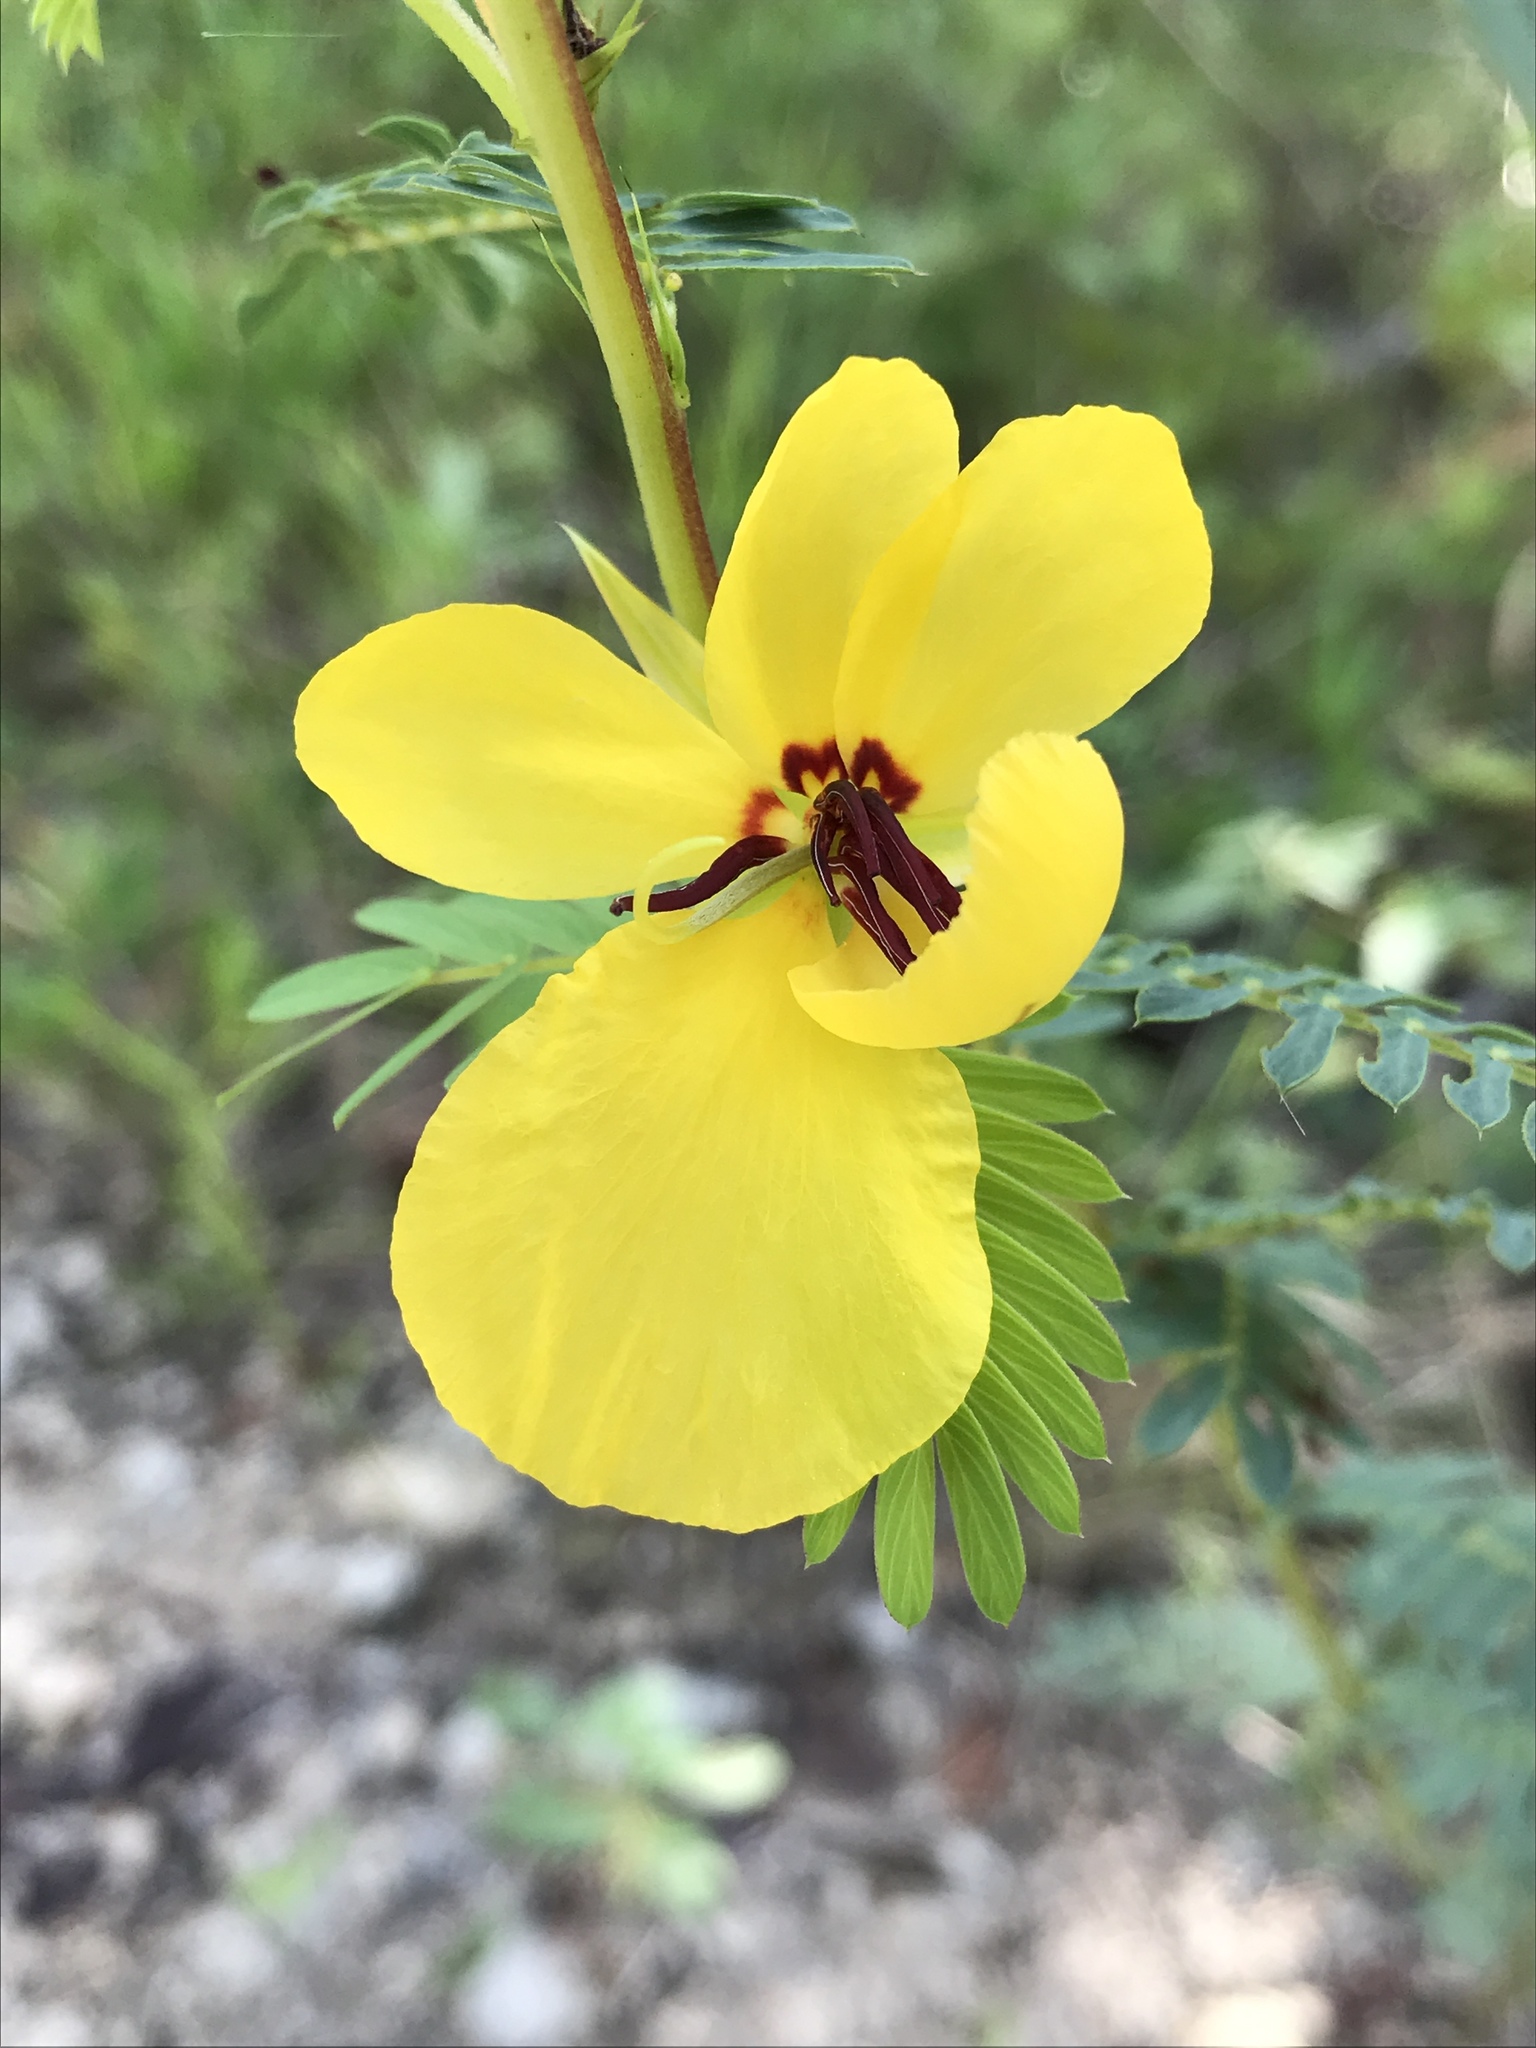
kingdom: Plantae
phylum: Tracheophyta
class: Magnoliopsida
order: Fabales
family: Fabaceae
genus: Chamaecrista
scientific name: Chamaecrista fasciculata
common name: Golden cassia
